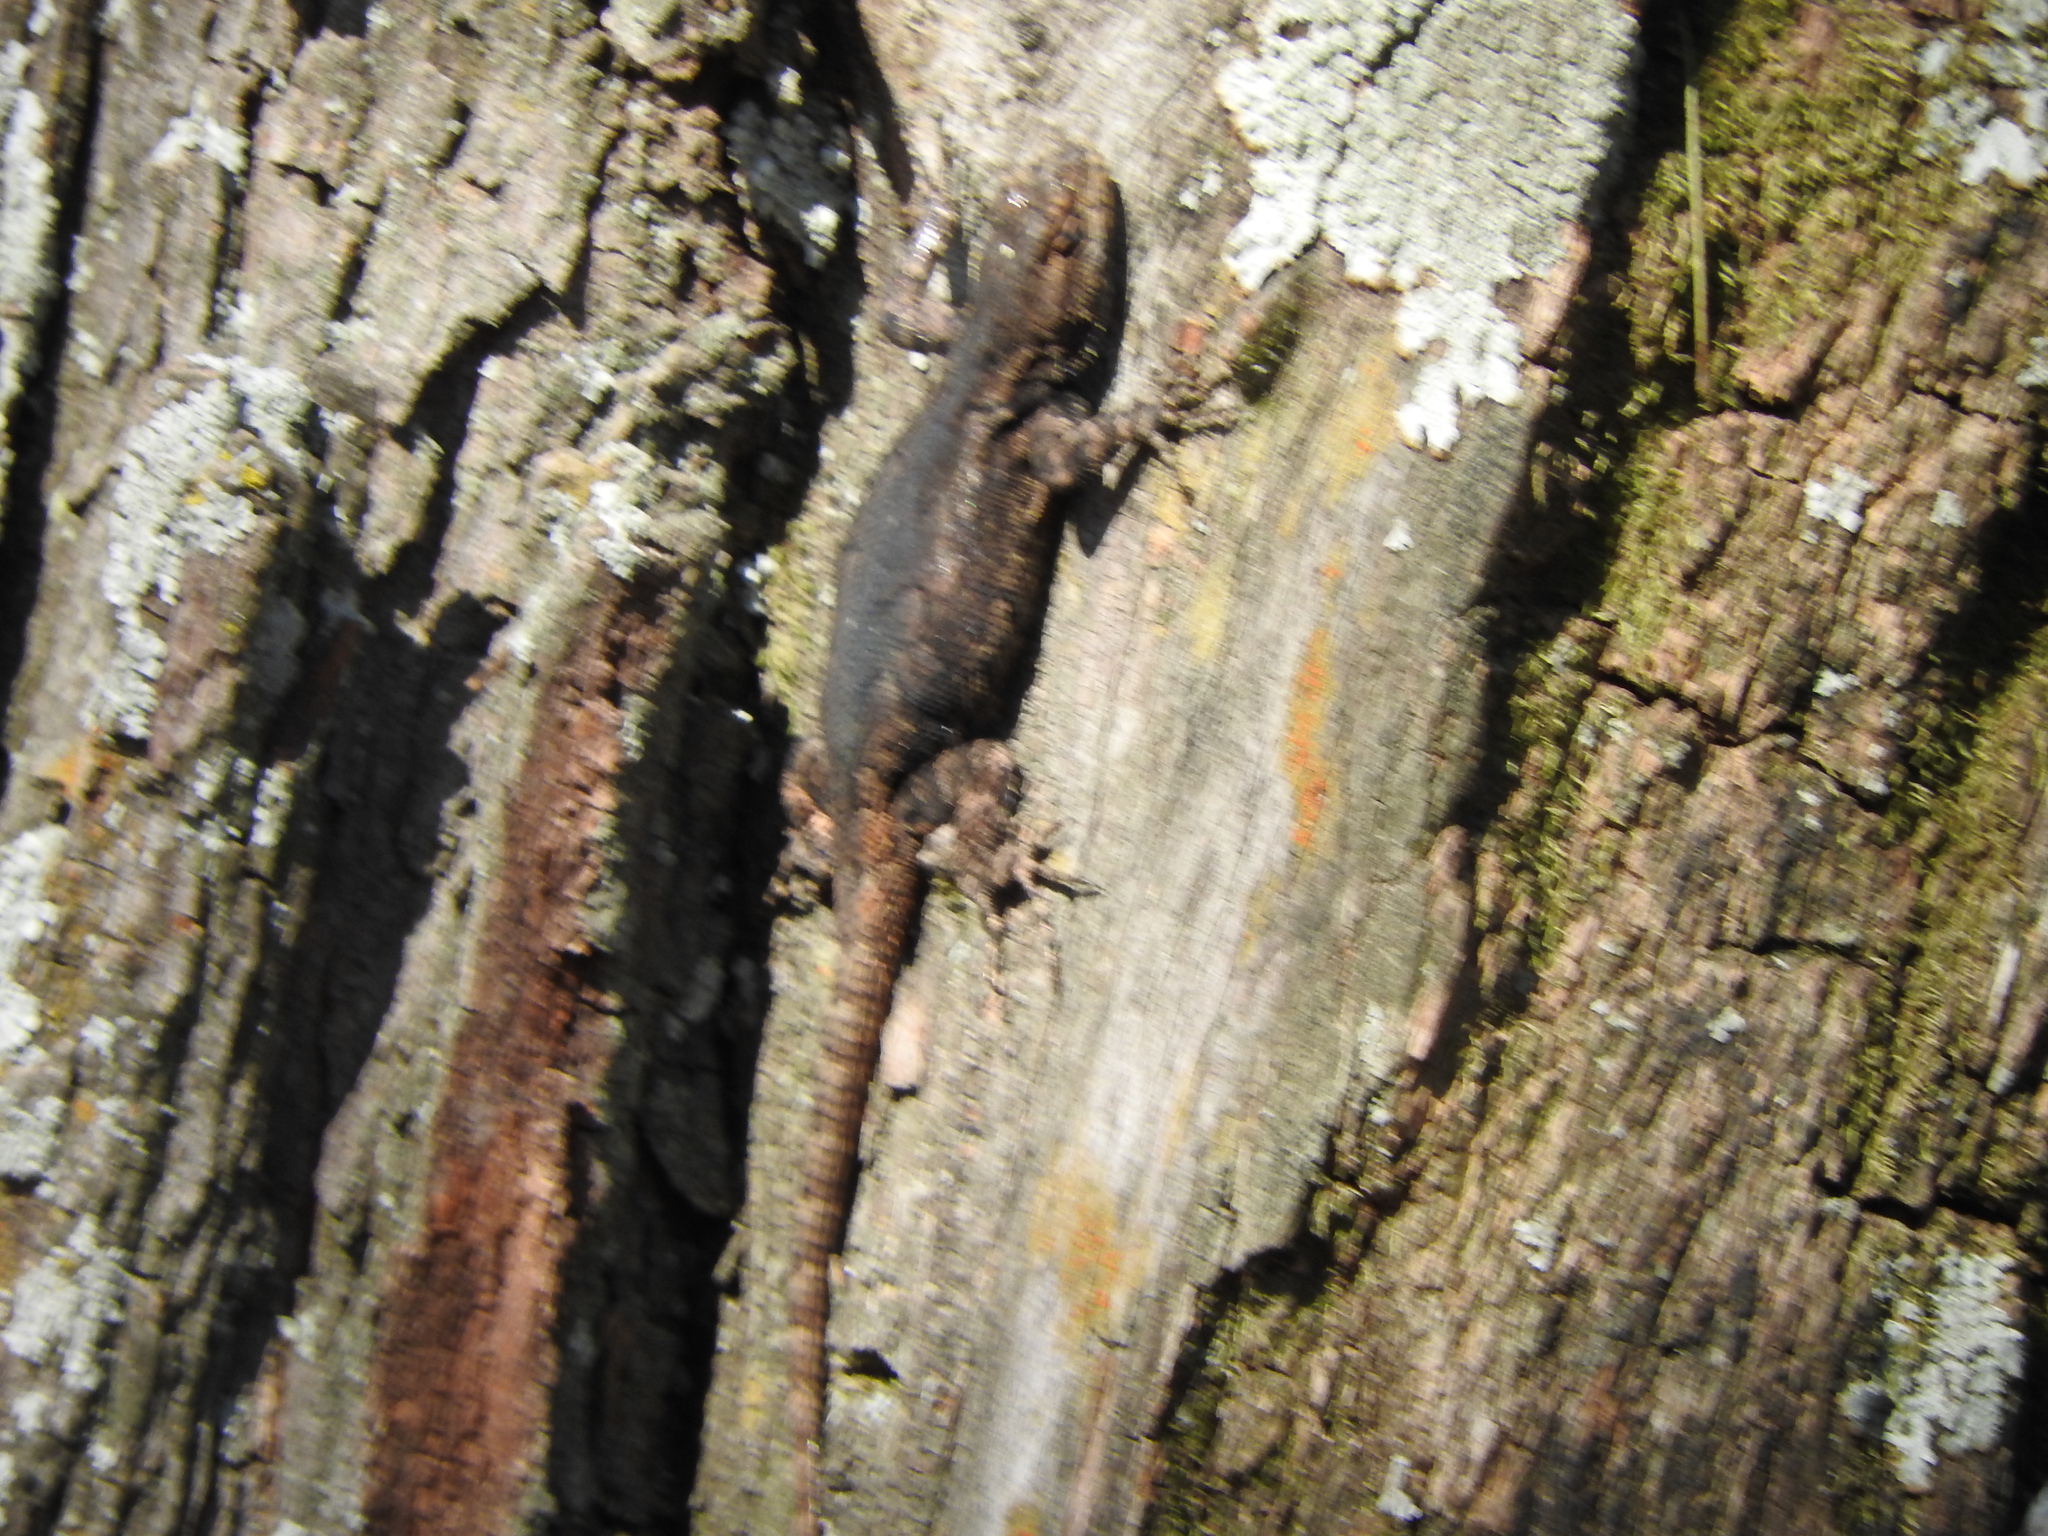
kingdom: Animalia
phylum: Chordata
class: Squamata
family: Phrynosomatidae
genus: Sceloporus
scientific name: Sceloporus grammicus
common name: Mesquite lizard
